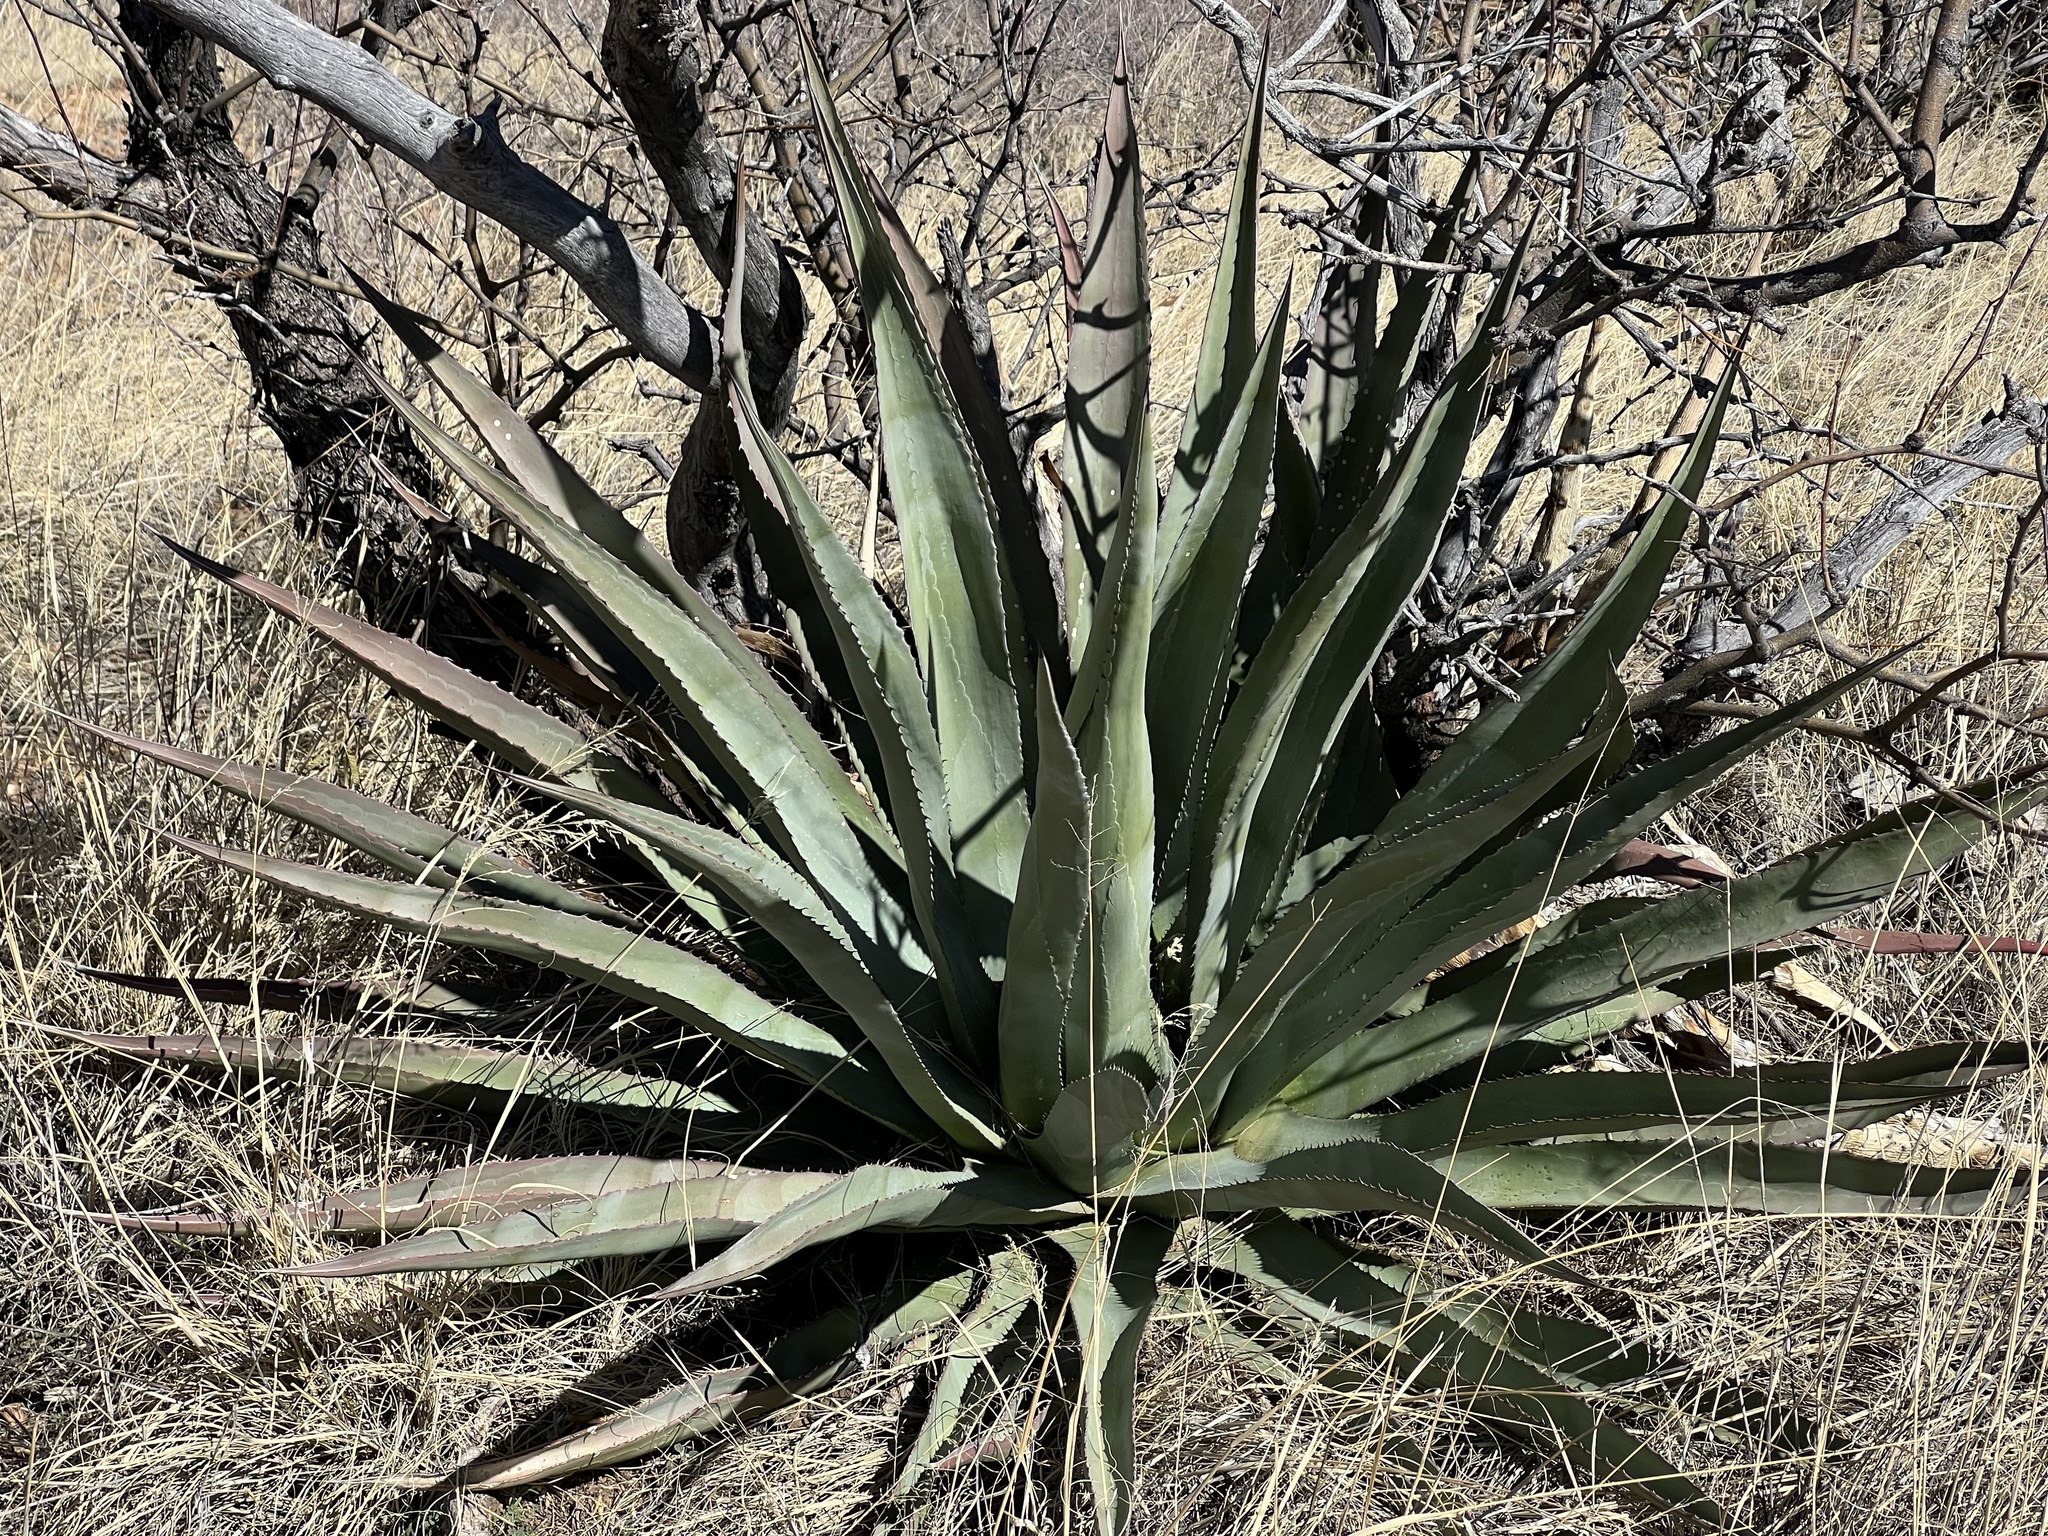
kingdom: Plantae
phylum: Tracheophyta
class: Liliopsida
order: Asparagales
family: Asparagaceae
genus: Agave
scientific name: Agave palmeri
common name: Palmer agave
